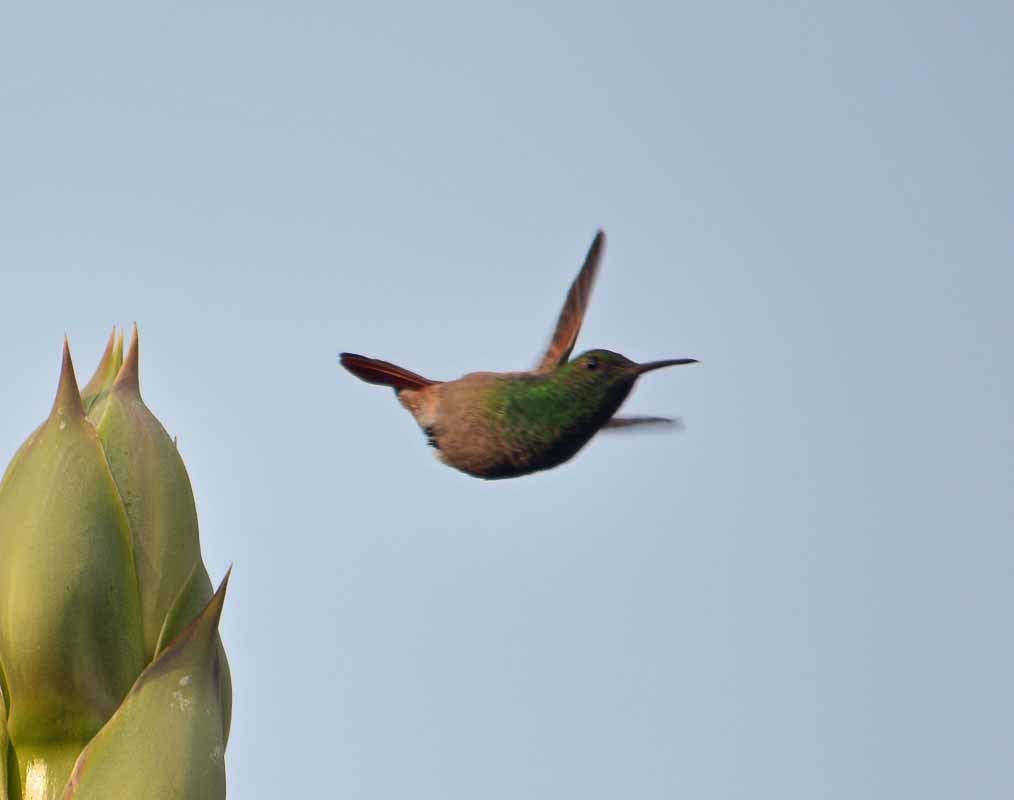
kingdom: Animalia
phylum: Chordata
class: Aves
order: Apodiformes
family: Trochilidae
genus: Saucerottia
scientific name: Saucerottia beryllina
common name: Berylline hummingbird
